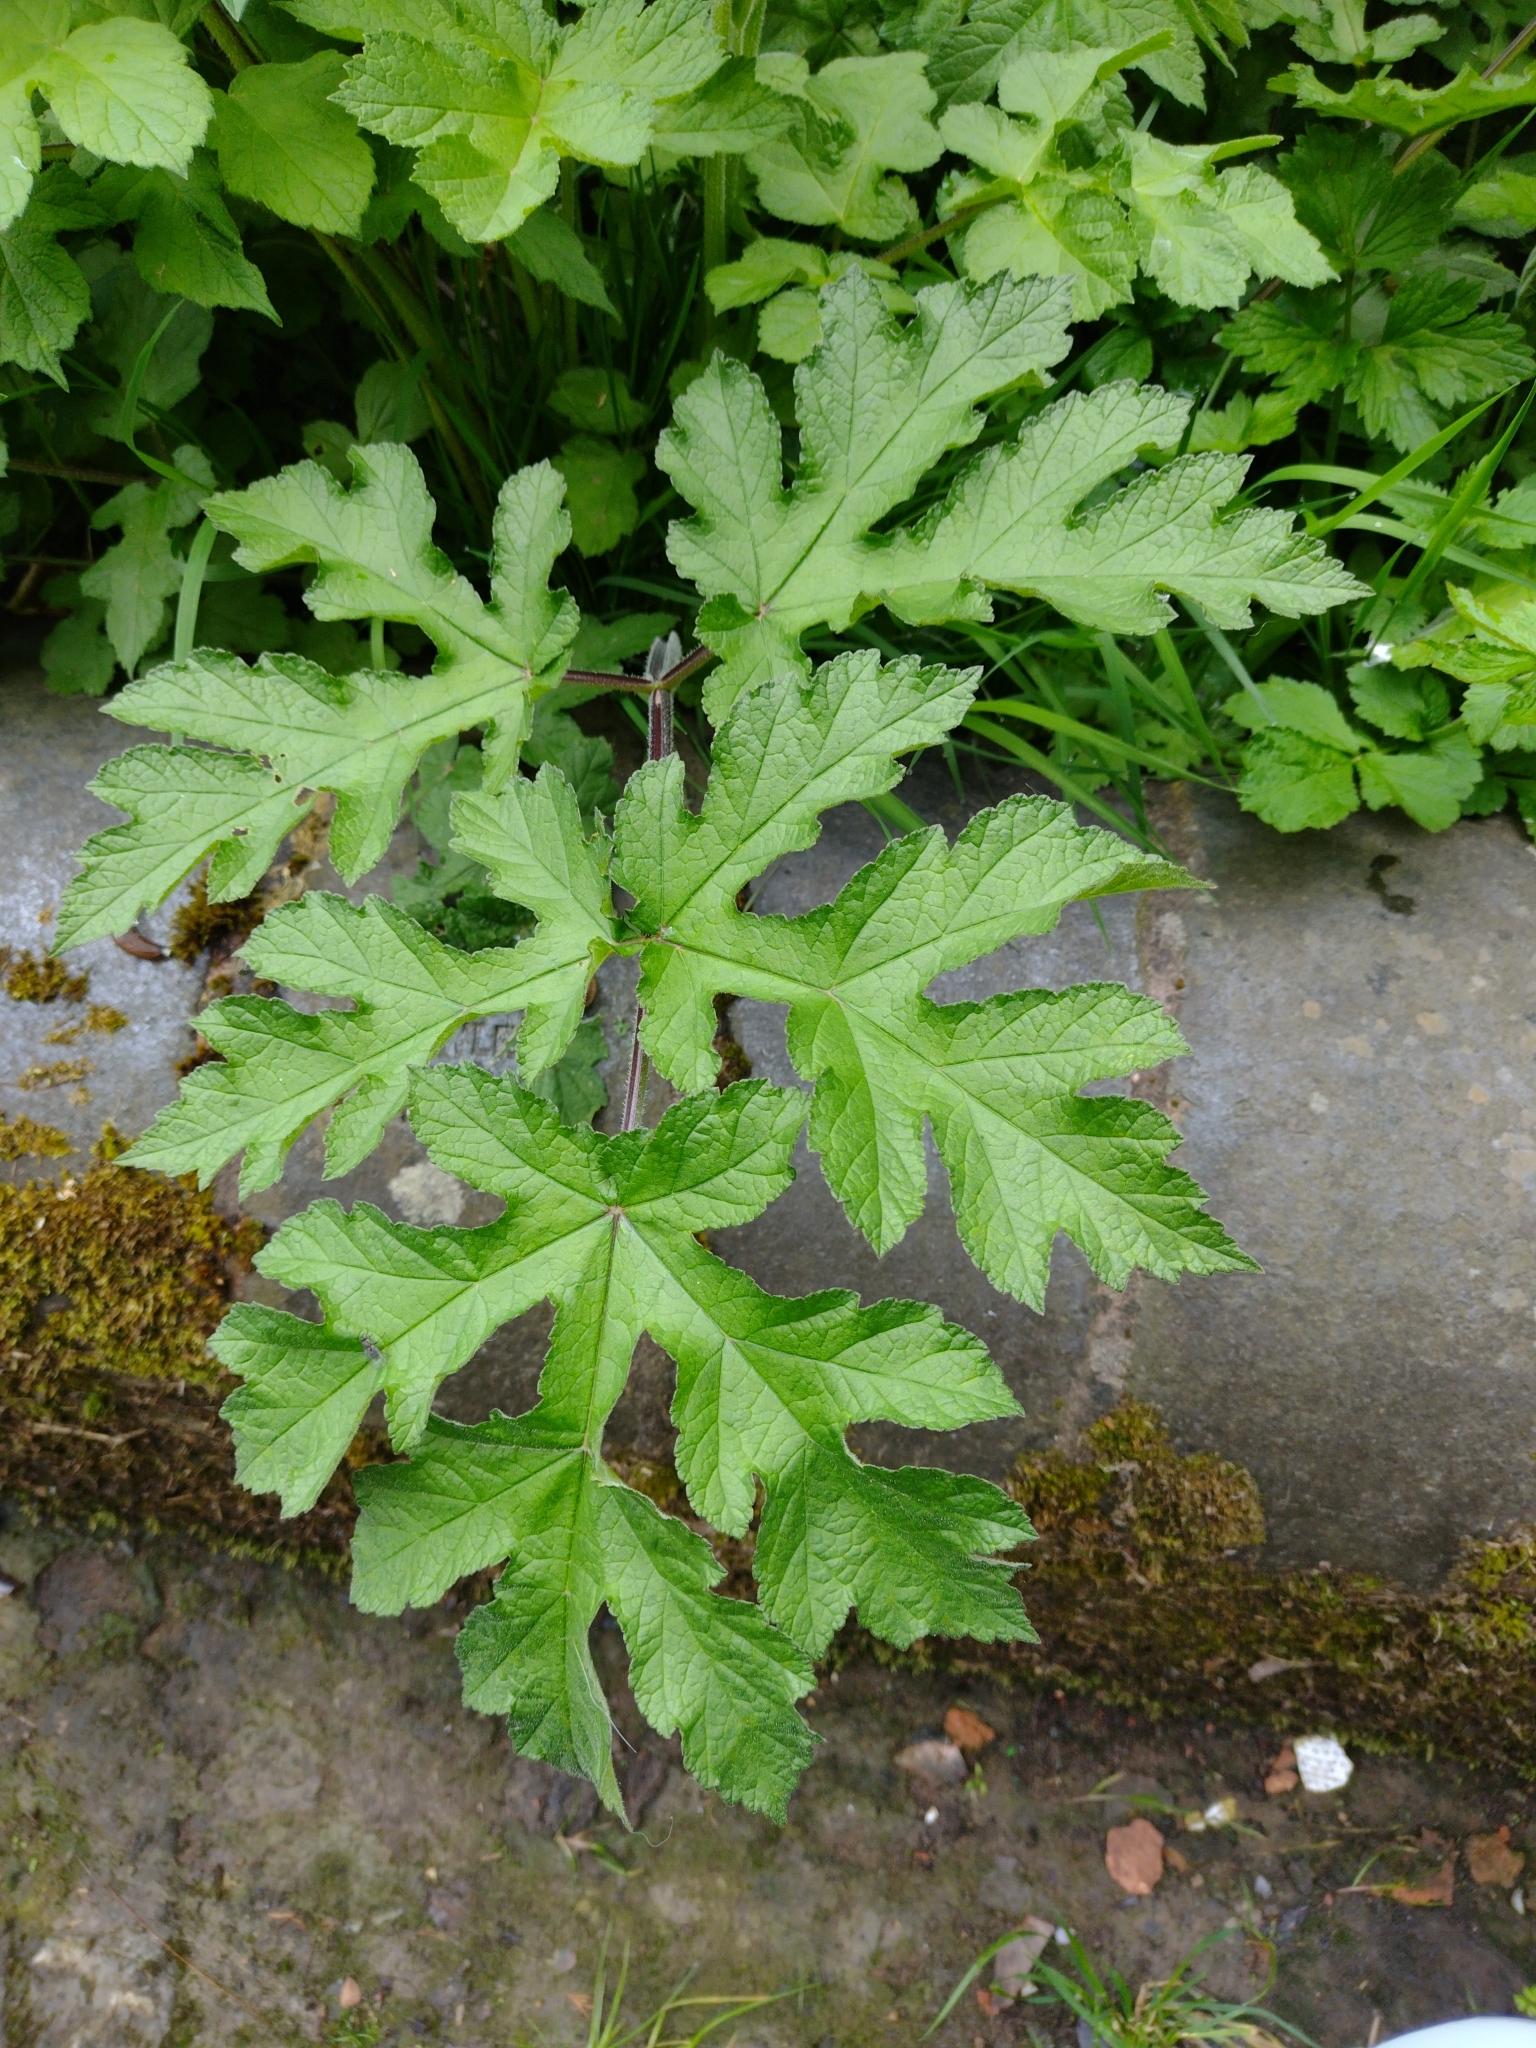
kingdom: Plantae
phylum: Tracheophyta
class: Magnoliopsida
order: Apiales
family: Apiaceae
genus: Heracleum
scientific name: Heracleum sphondylium
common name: Hogweed
